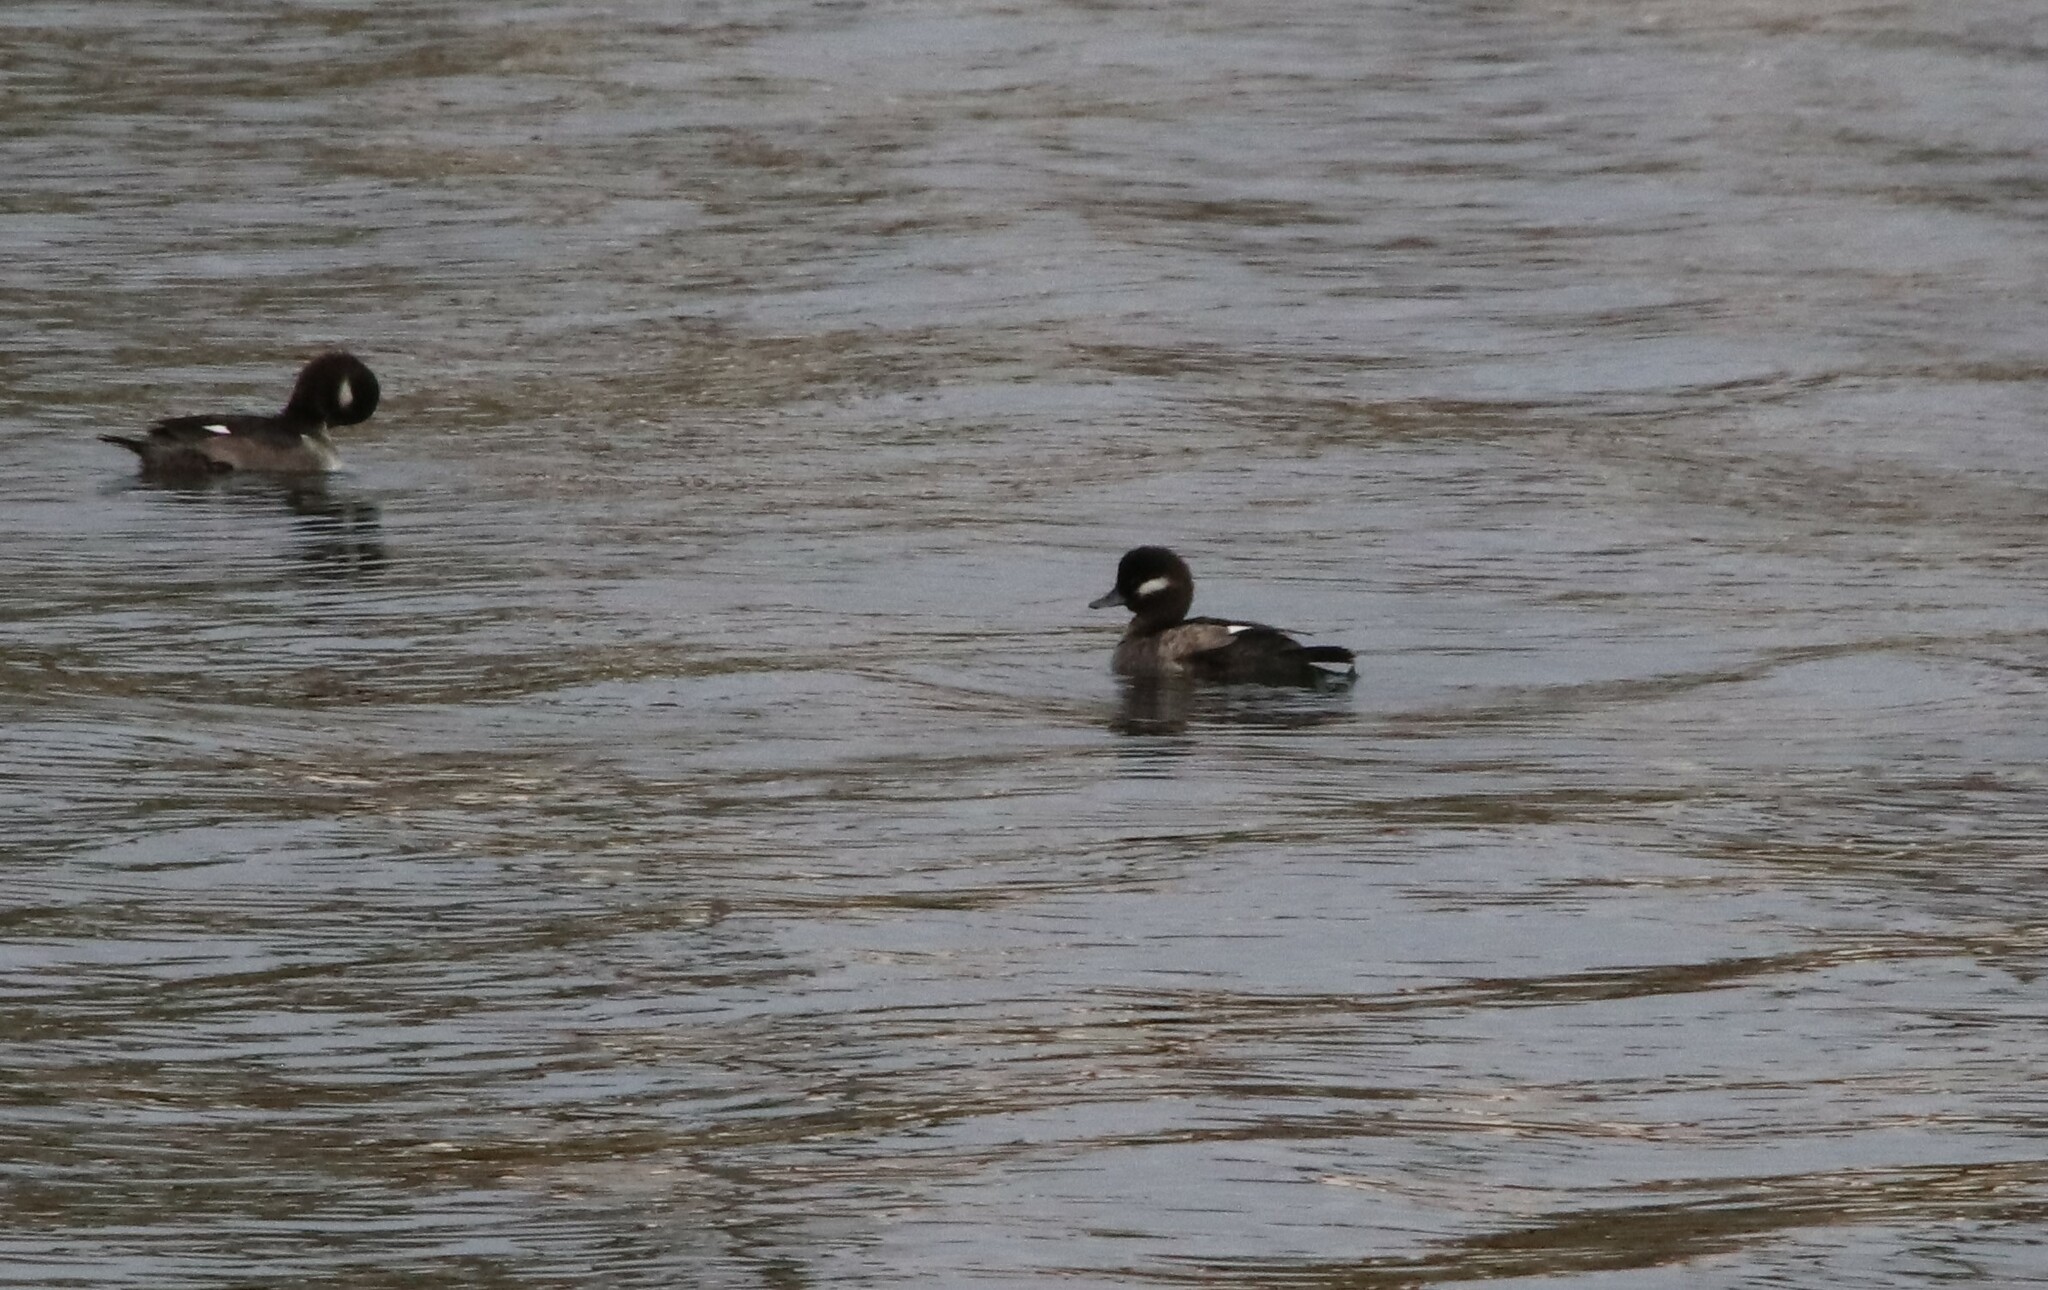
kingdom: Animalia
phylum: Chordata
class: Aves
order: Anseriformes
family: Anatidae
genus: Bucephala
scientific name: Bucephala albeola
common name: Bufflehead
